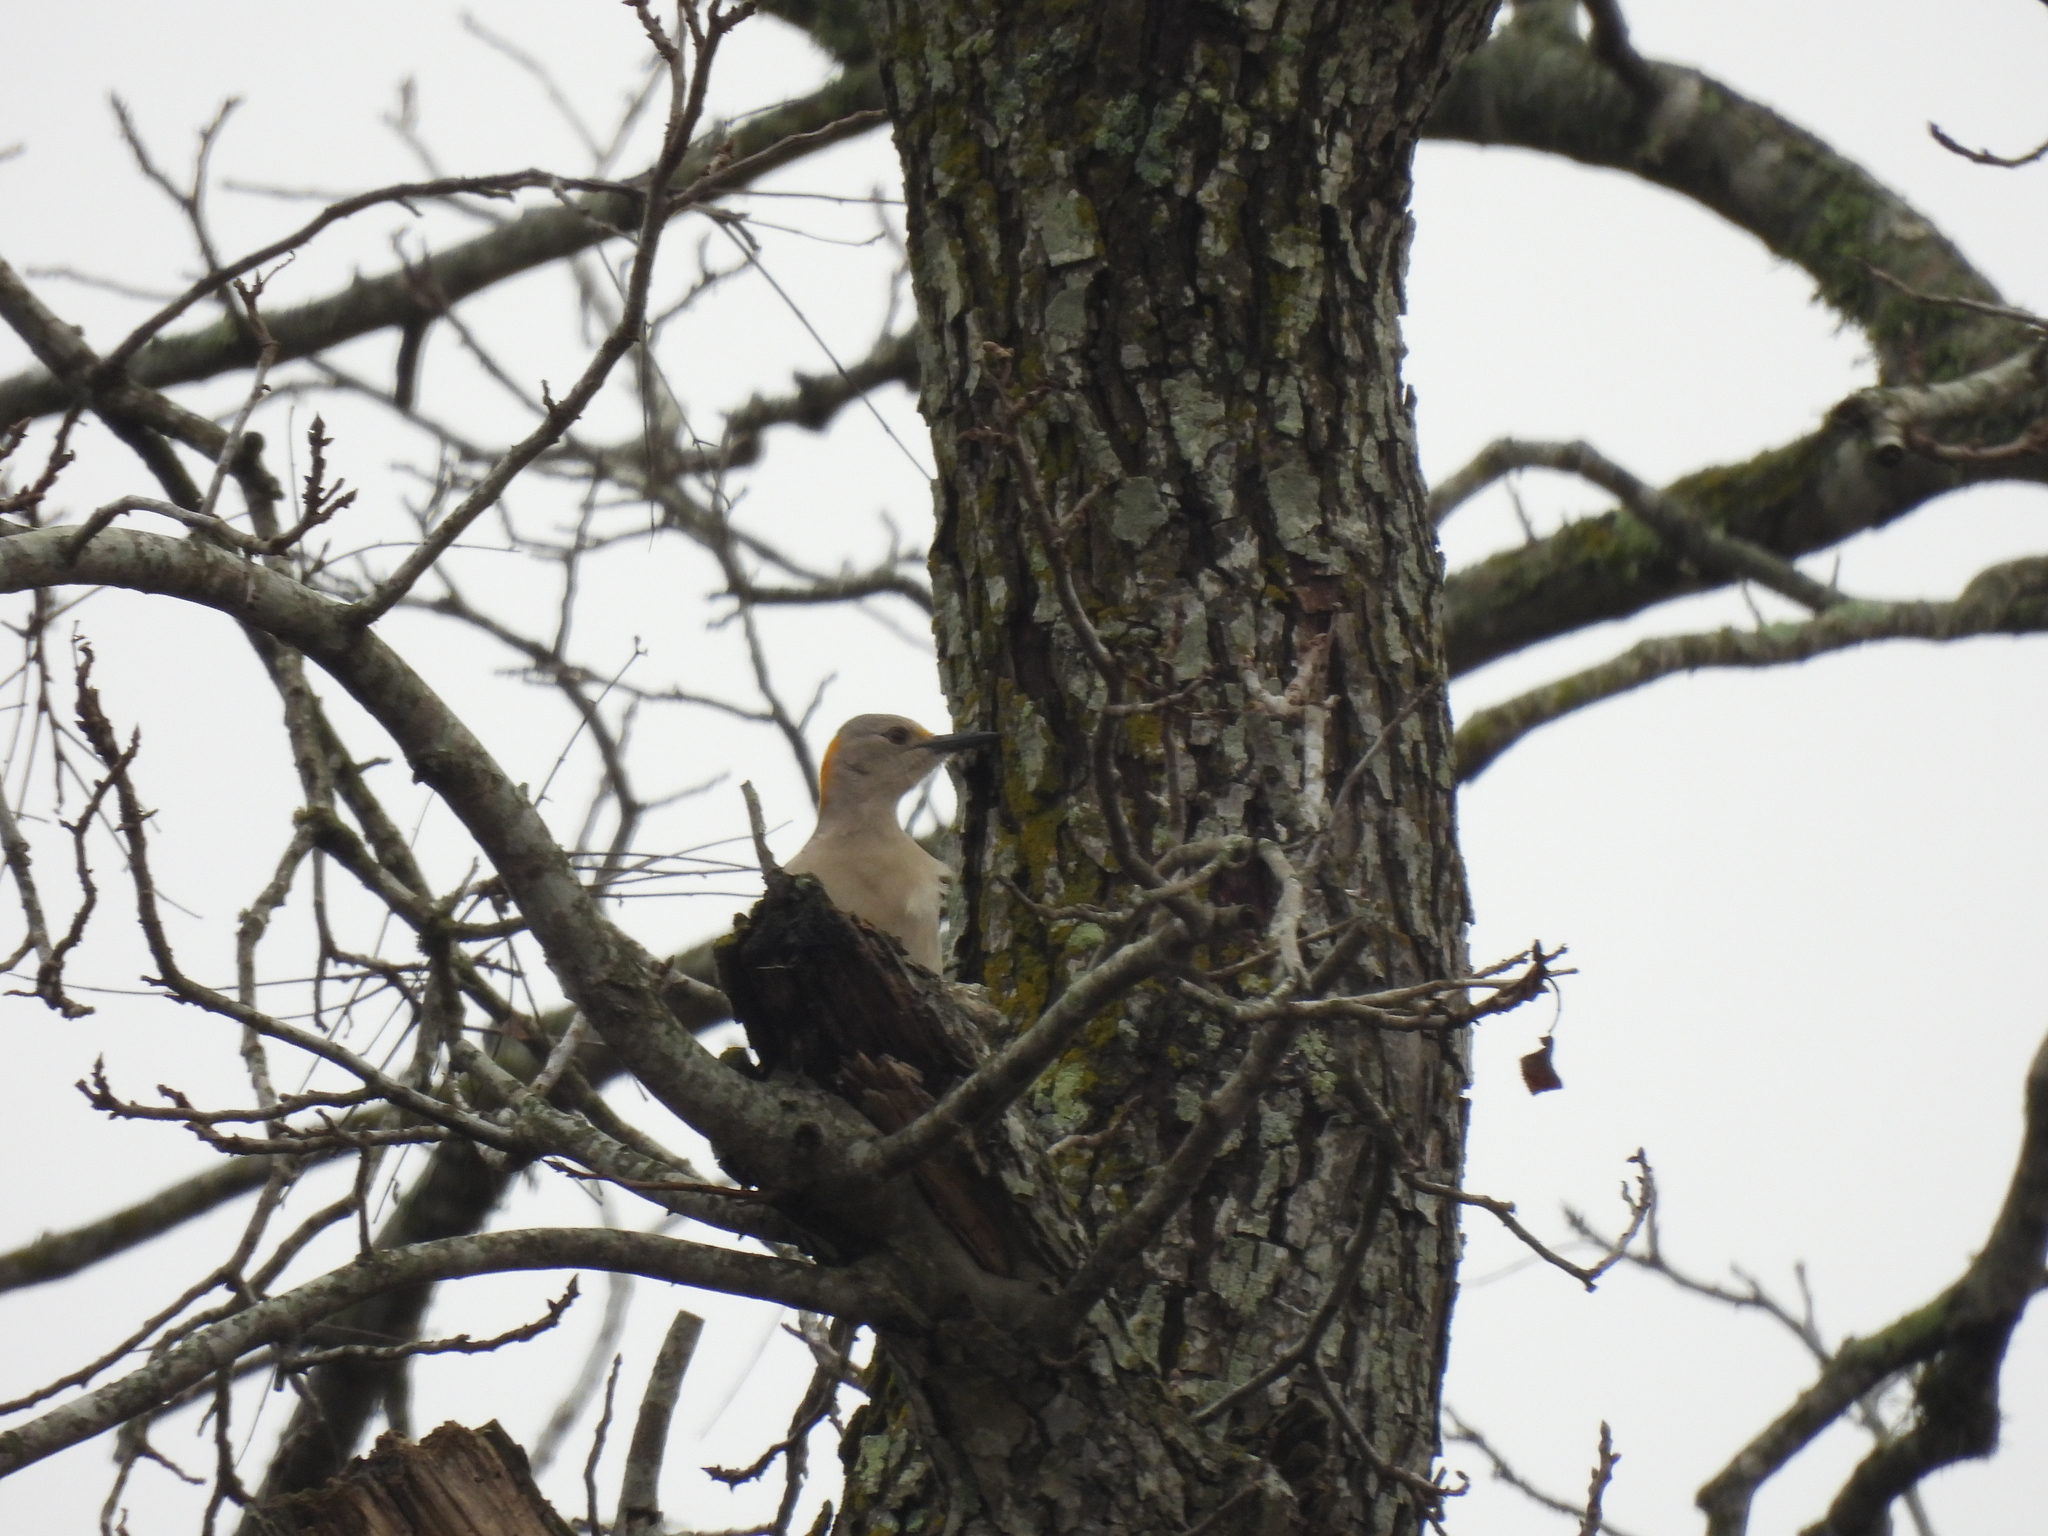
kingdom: Animalia
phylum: Chordata
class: Aves
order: Piciformes
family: Picidae
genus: Melanerpes
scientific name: Melanerpes aurifrons
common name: Golden-fronted woodpecker
